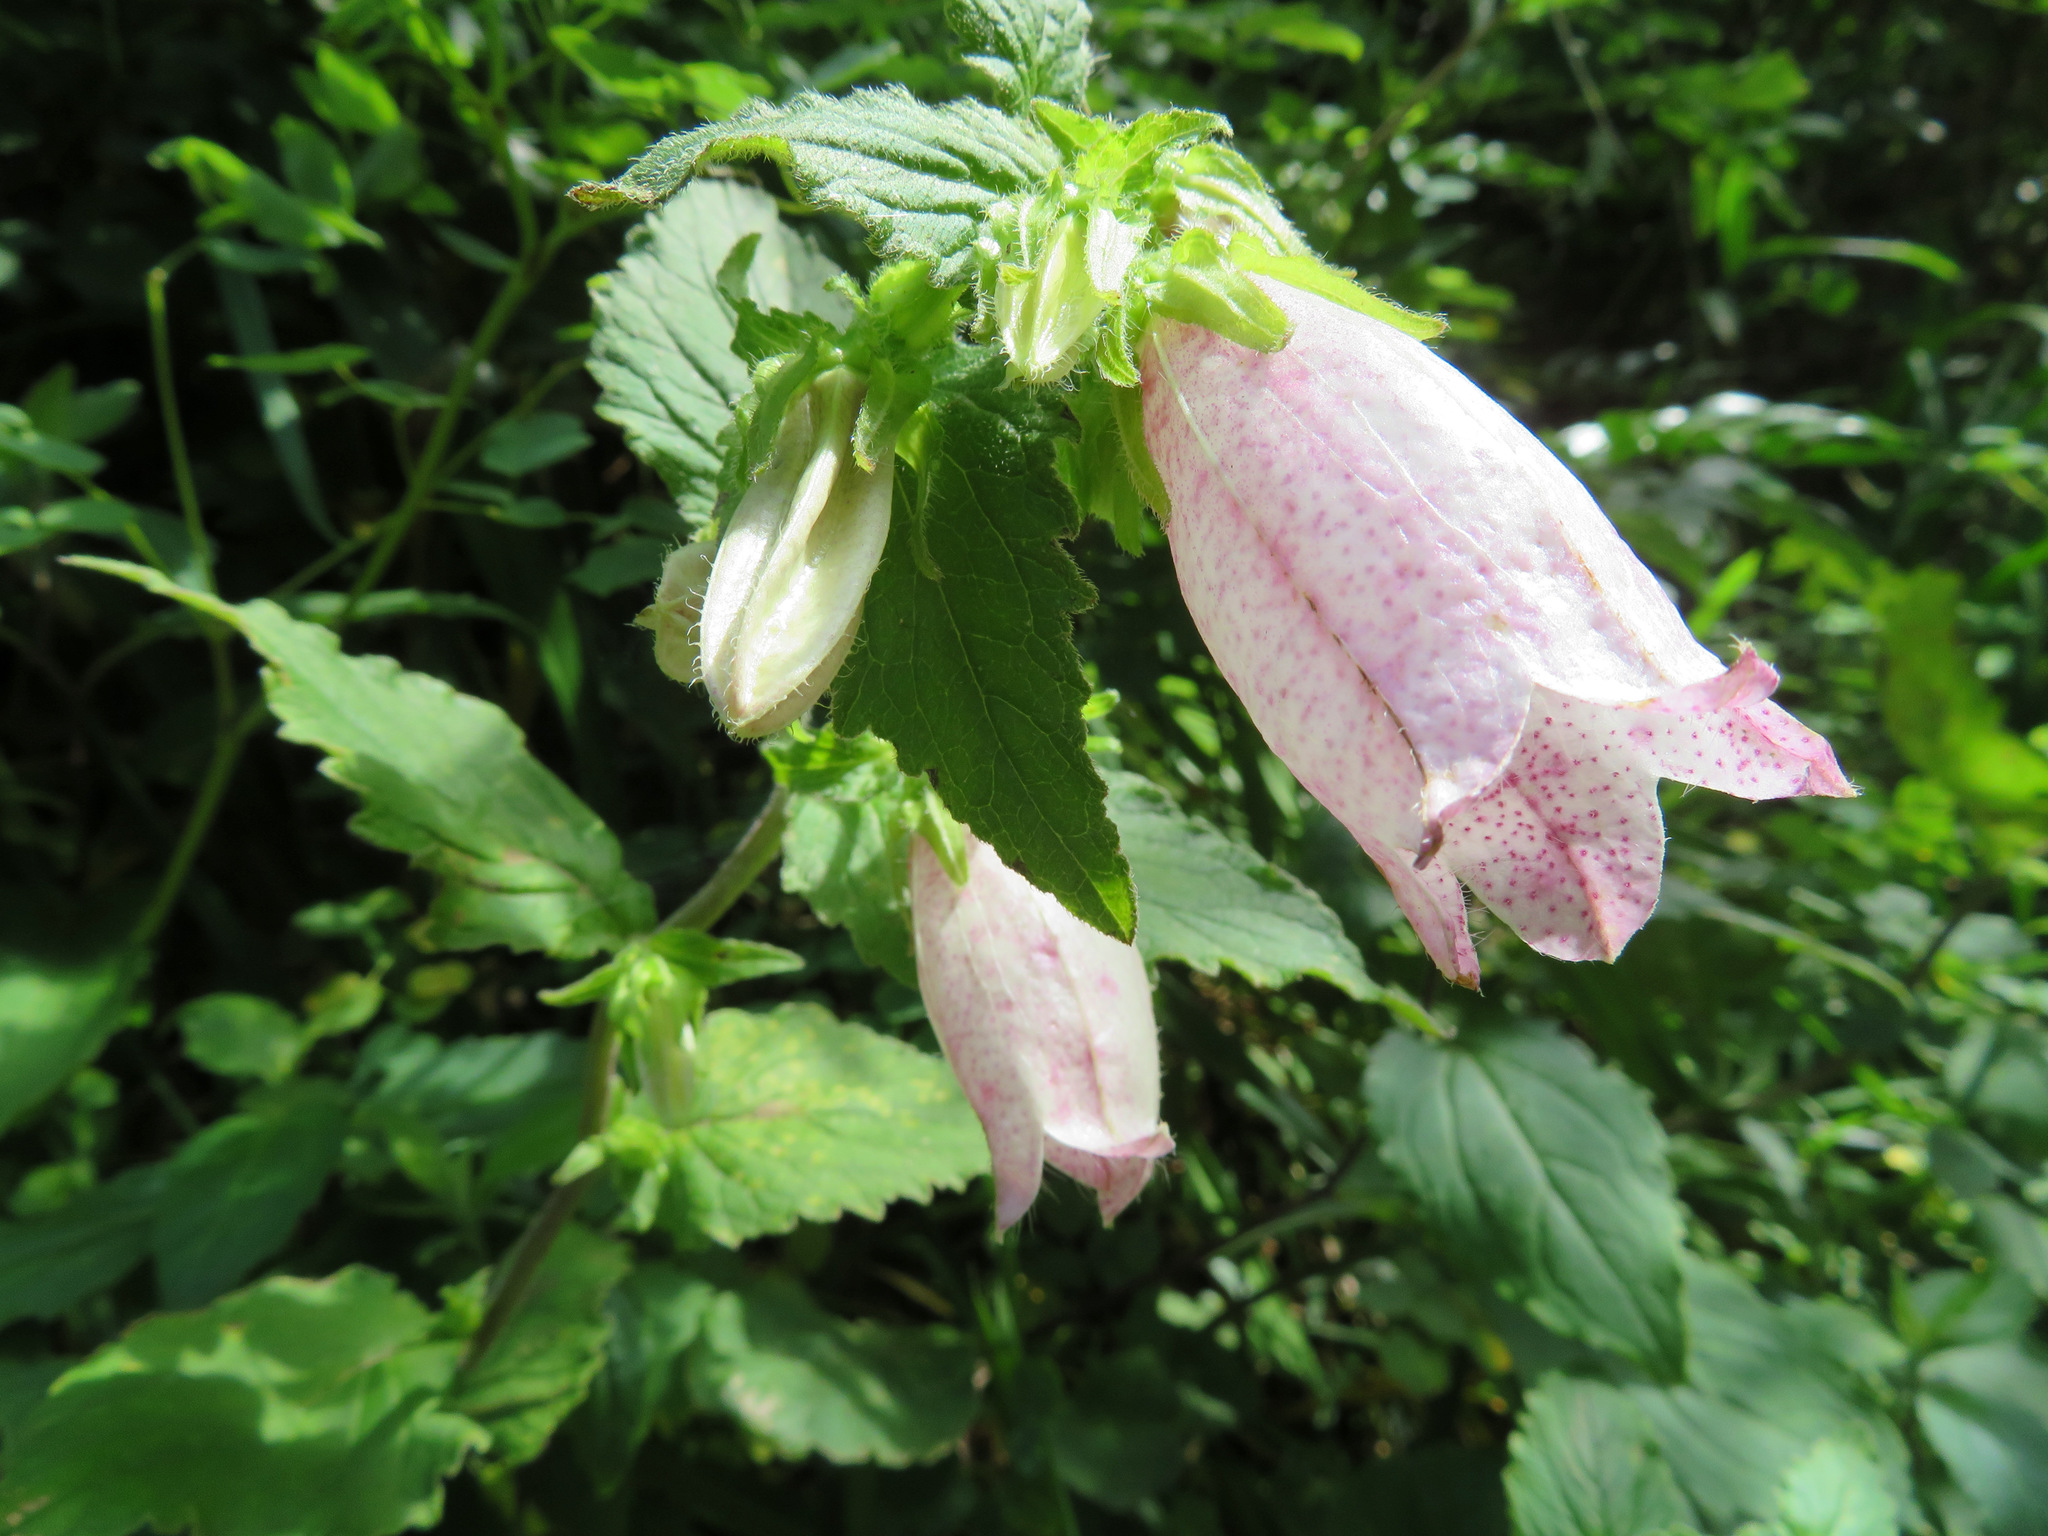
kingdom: Plantae
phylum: Tracheophyta
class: Magnoliopsida
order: Asterales
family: Campanulaceae
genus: Campanula
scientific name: Campanula punctata
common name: Spotted bellflower
